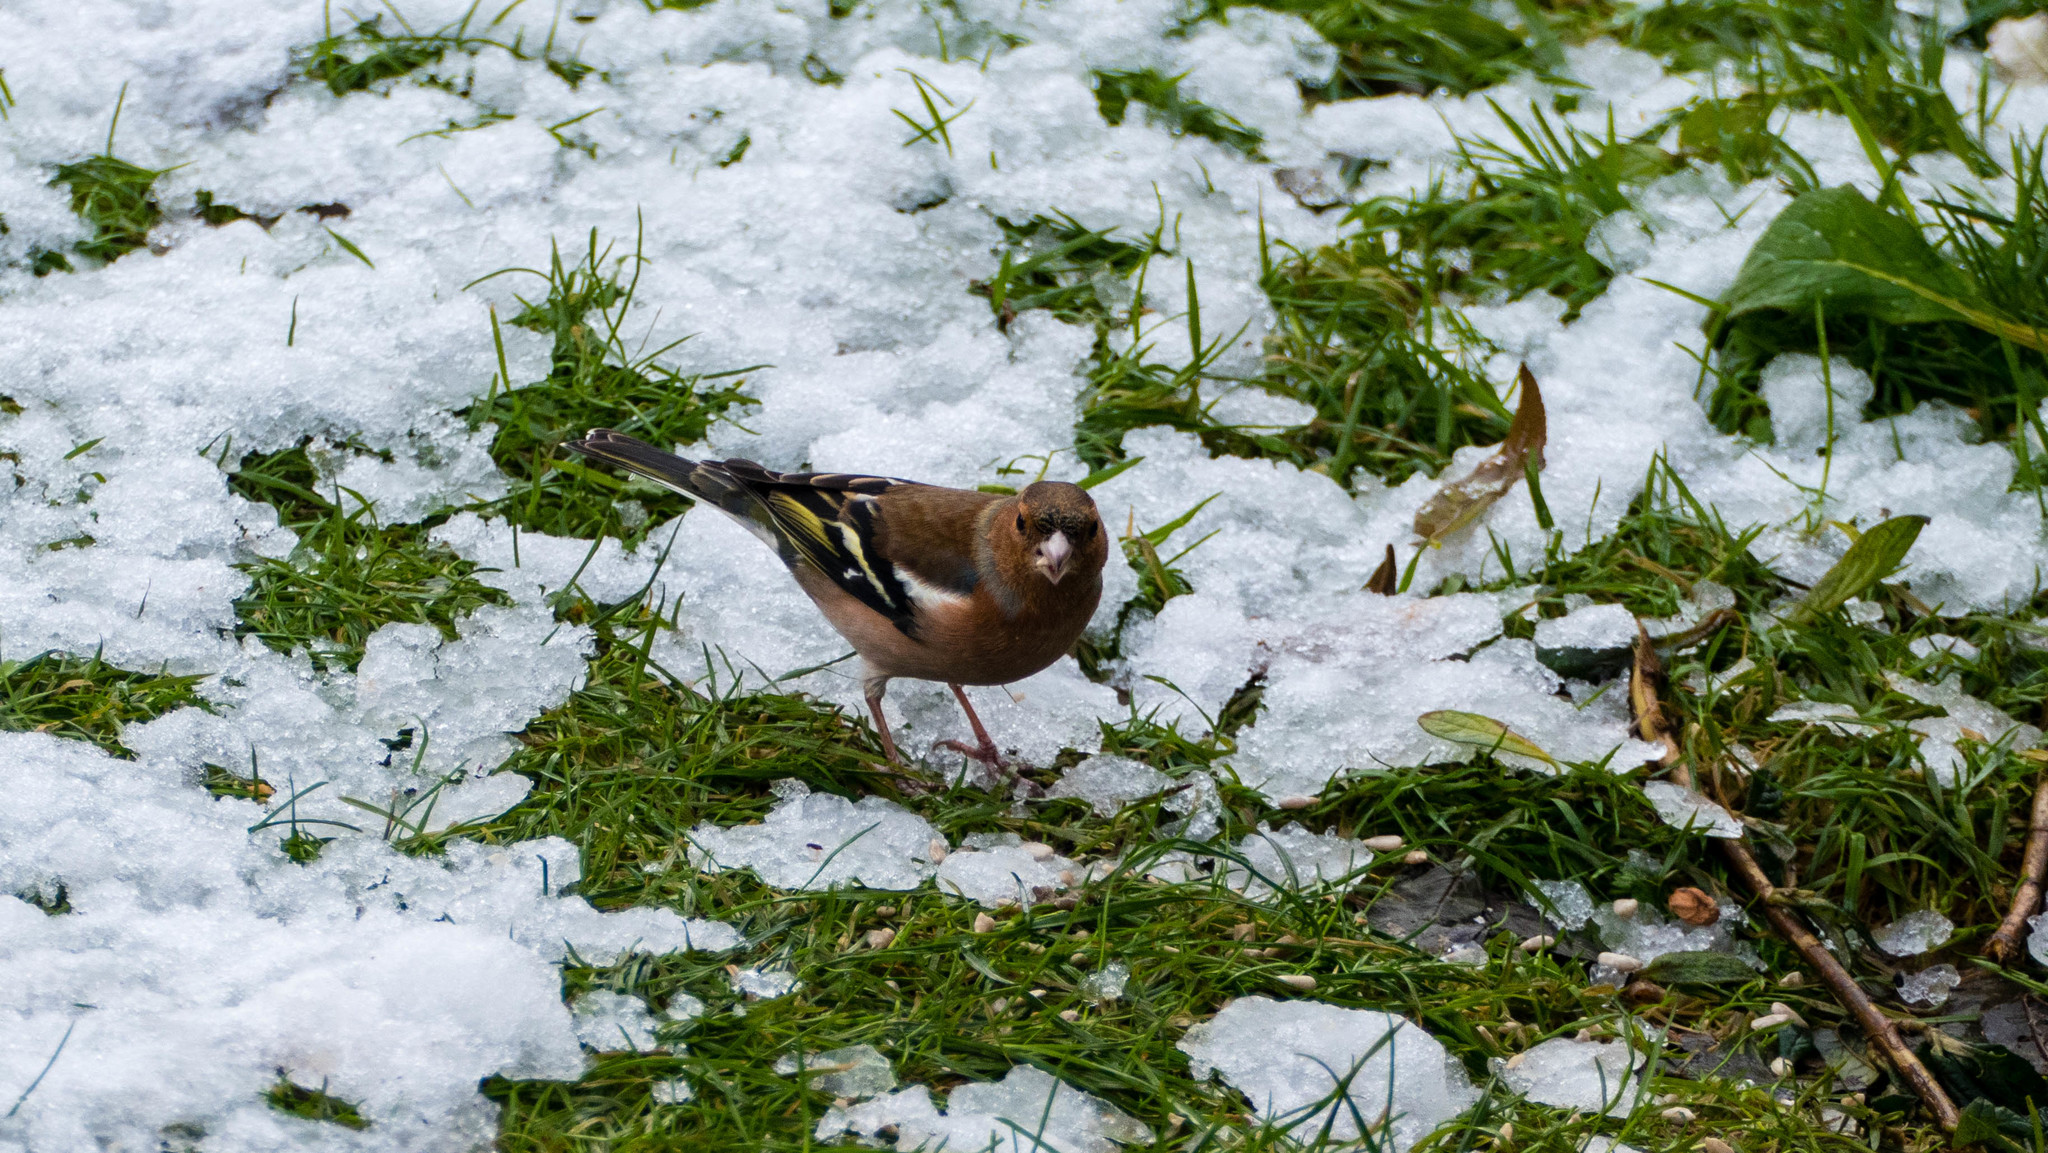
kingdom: Animalia
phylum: Chordata
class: Aves
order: Passeriformes
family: Fringillidae
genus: Fringilla
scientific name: Fringilla coelebs
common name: Common chaffinch
